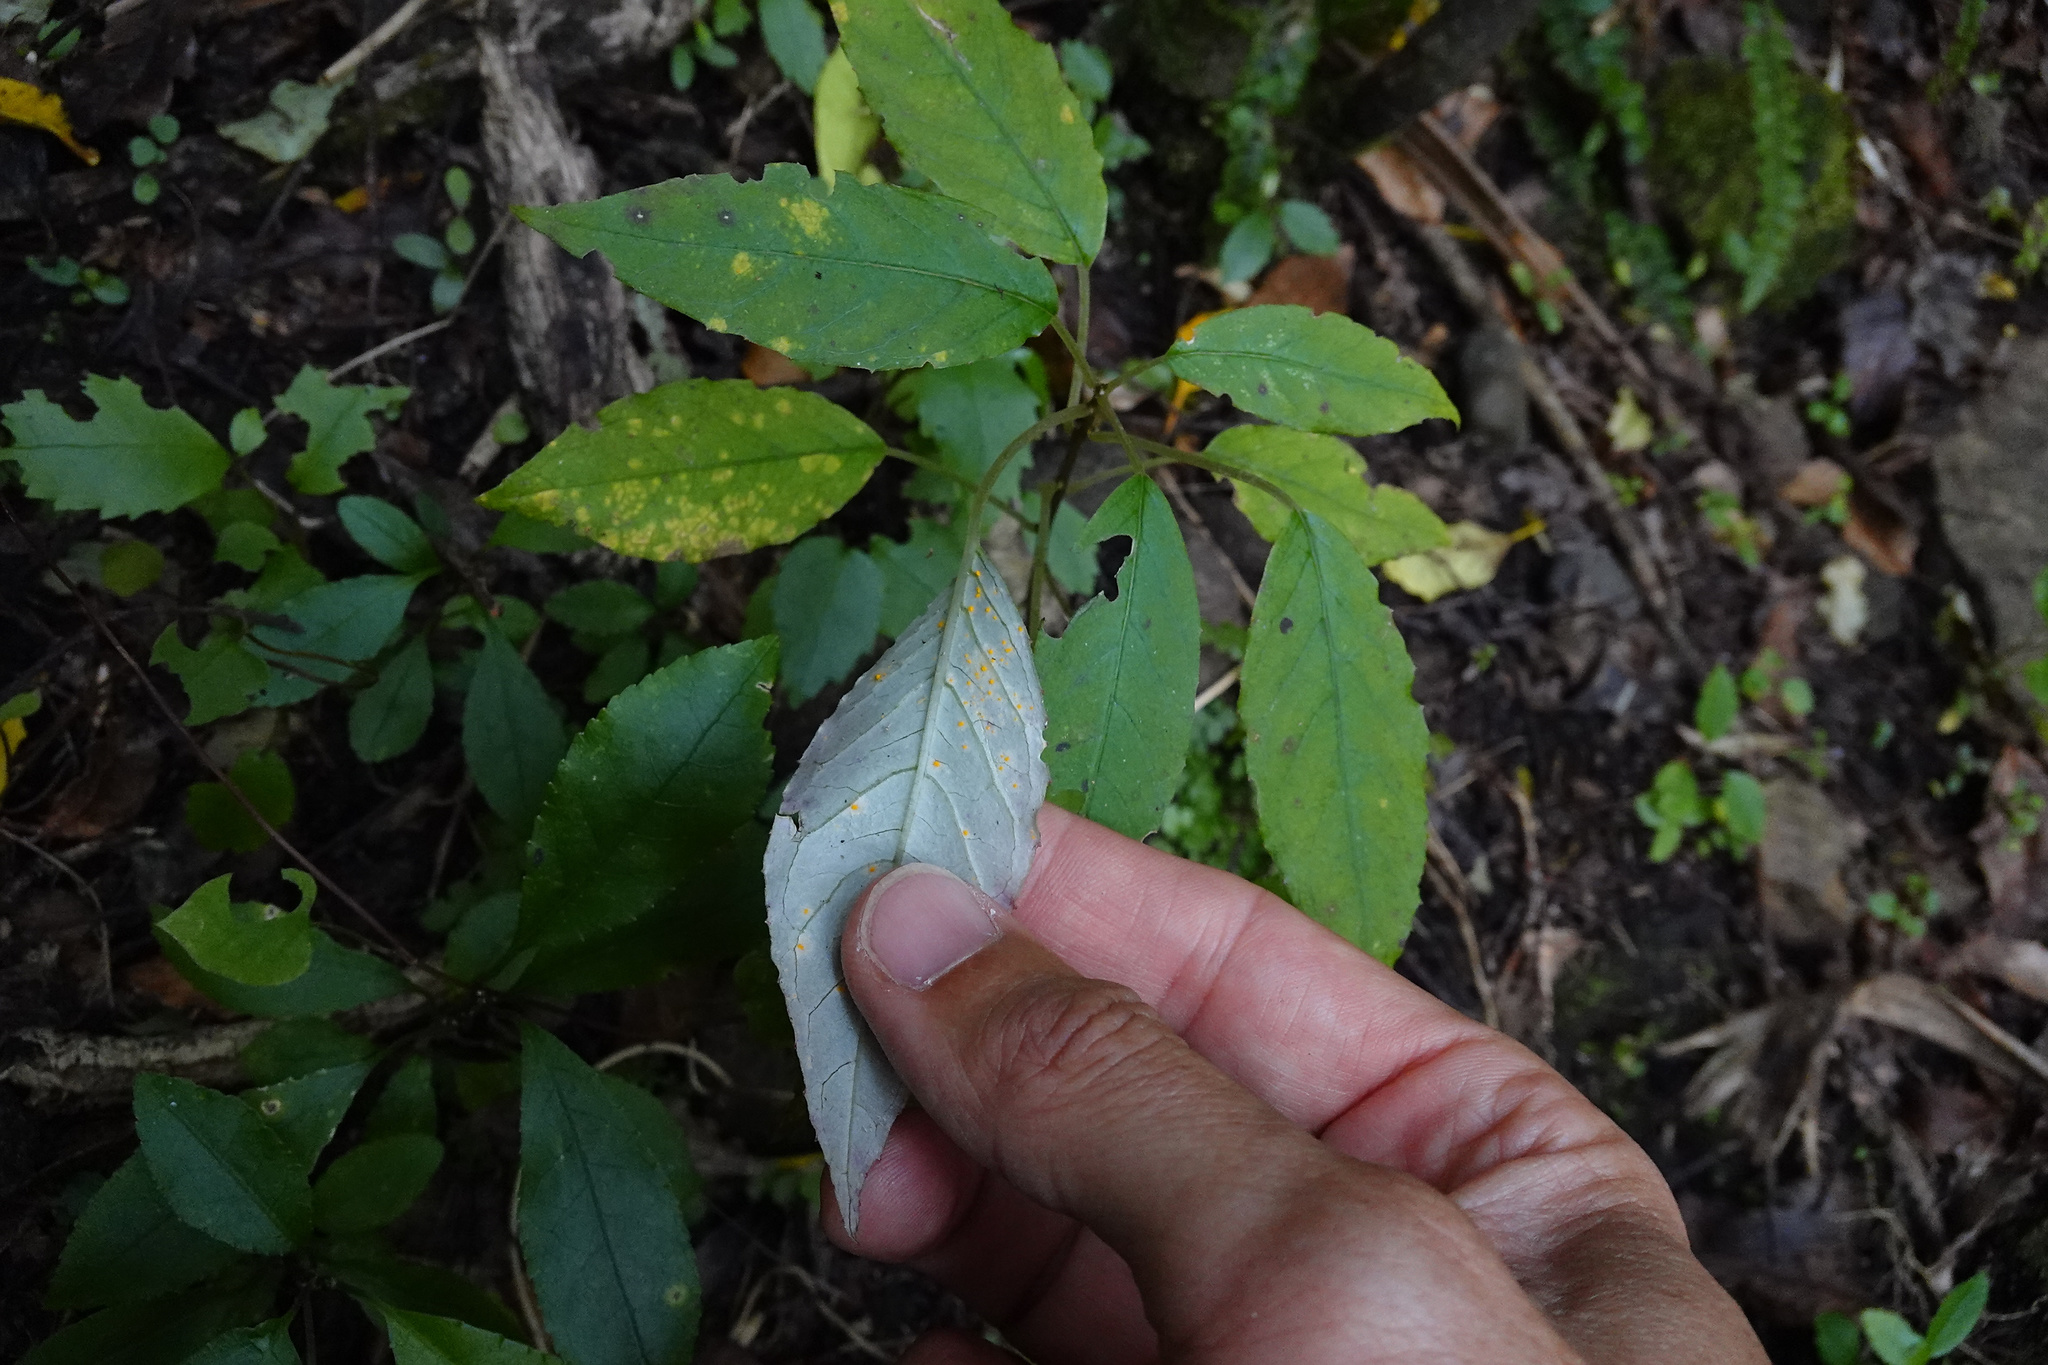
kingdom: Fungi
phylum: Basidiomycota
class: Pucciniomycetes
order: Pucciniales
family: Mikronegeriaceae
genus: Mikronegeria
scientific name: Mikronegeria fuchsiae
